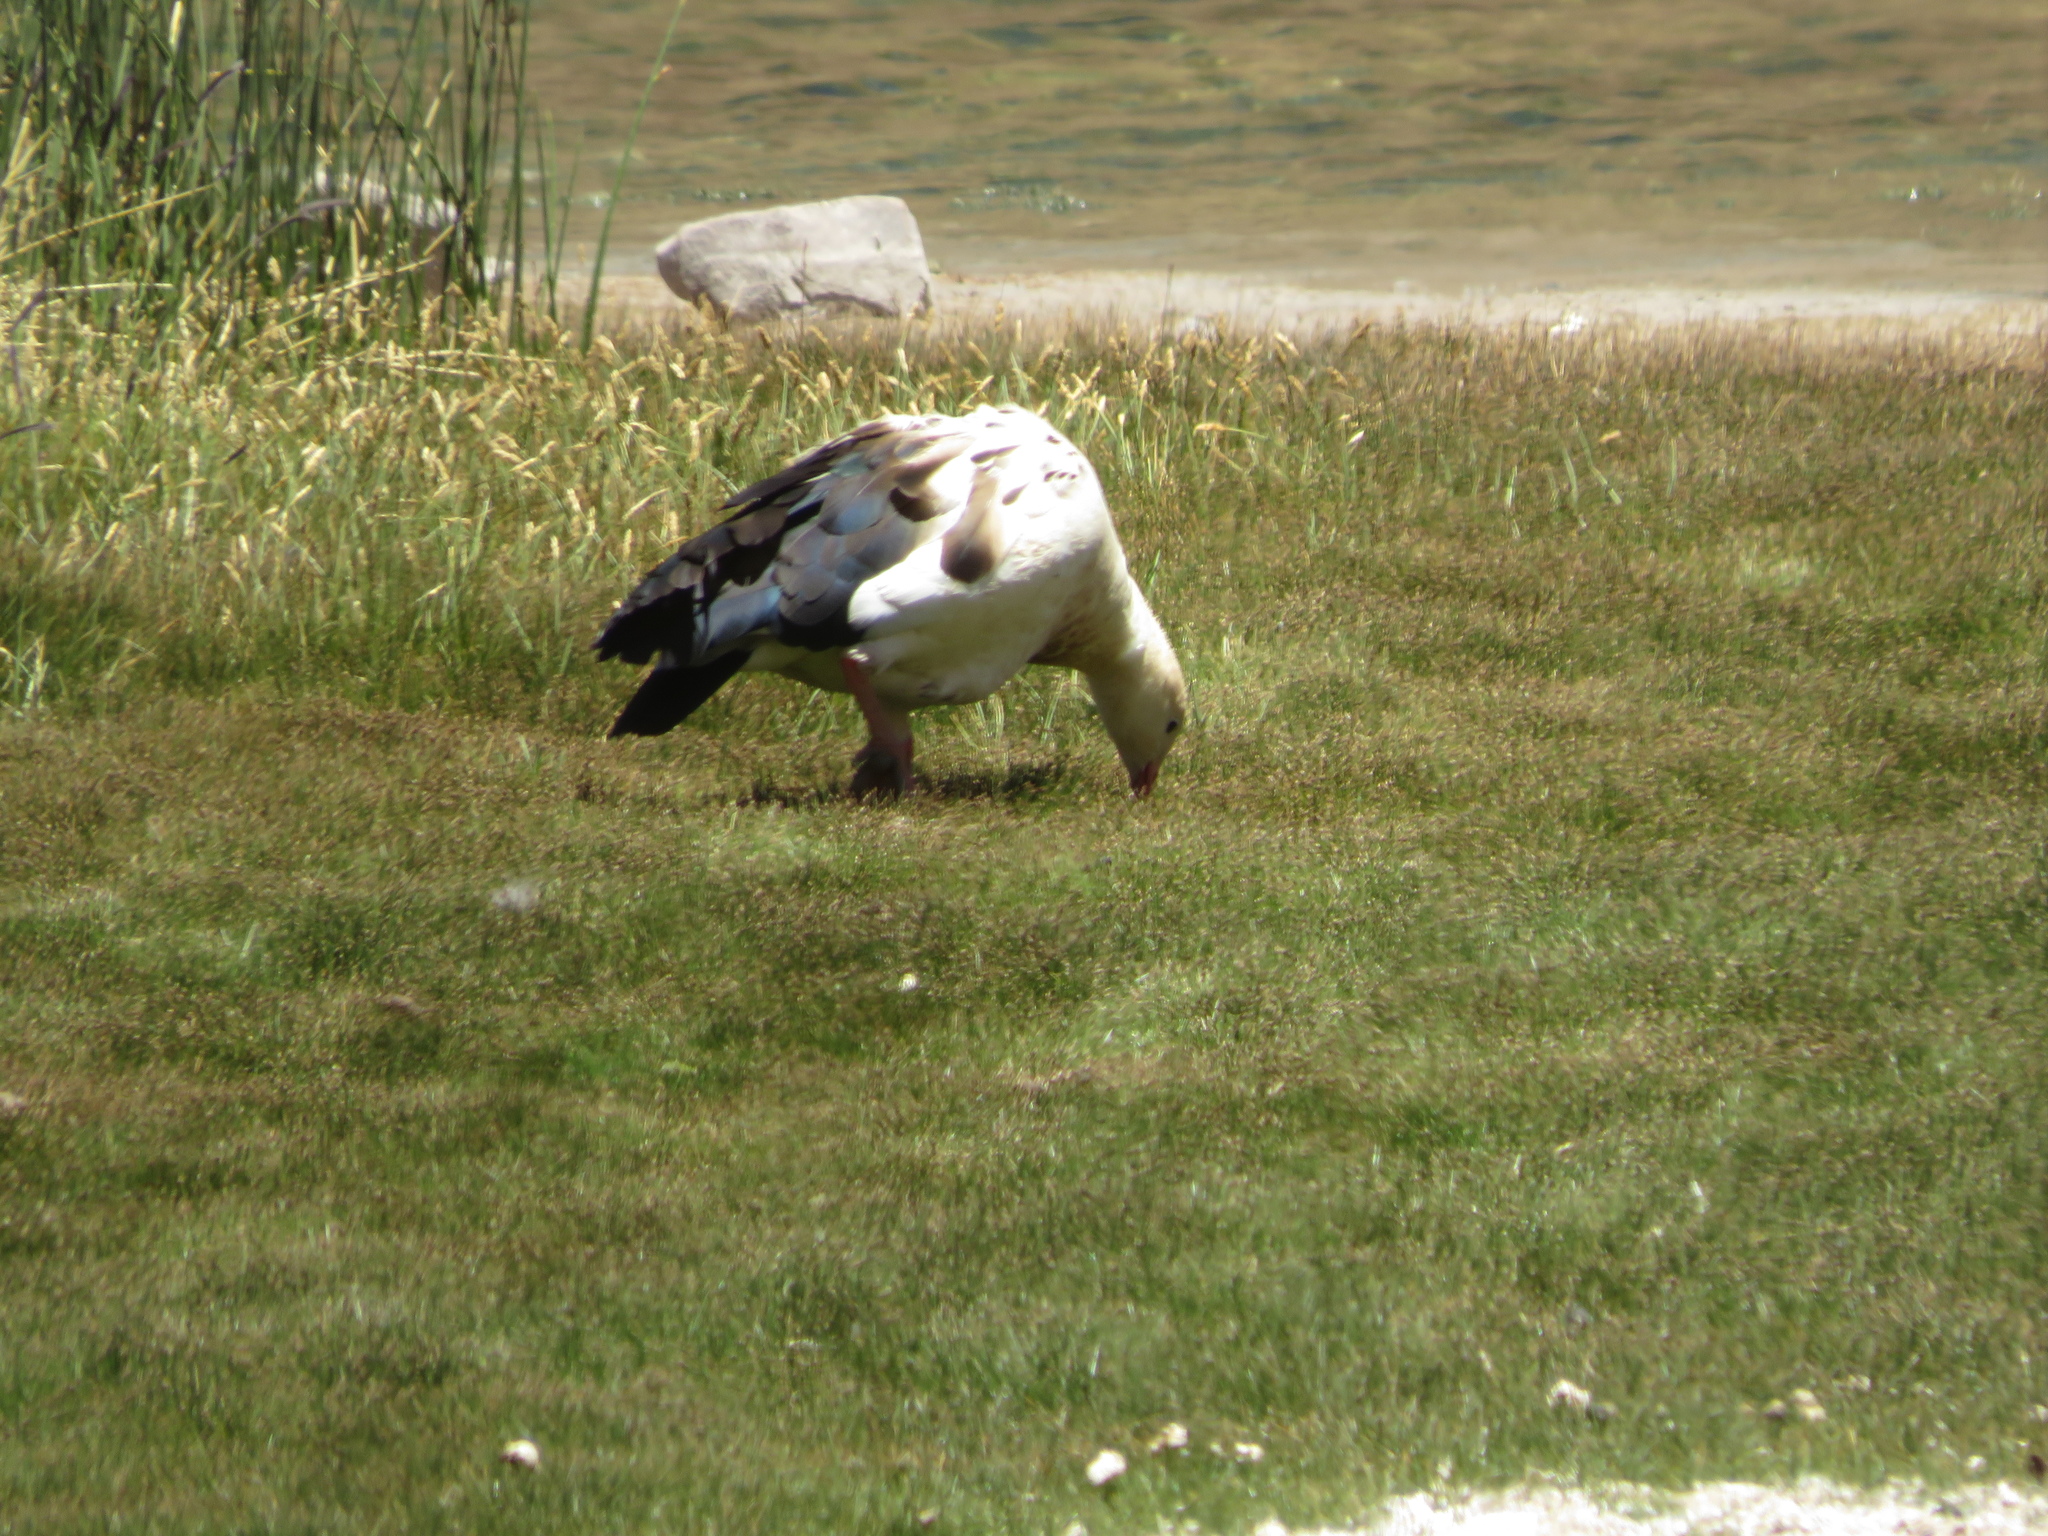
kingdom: Animalia
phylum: Chordata
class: Aves
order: Anseriformes
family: Anatidae
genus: Chloephaga
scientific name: Chloephaga melanoptera
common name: Andean goose
